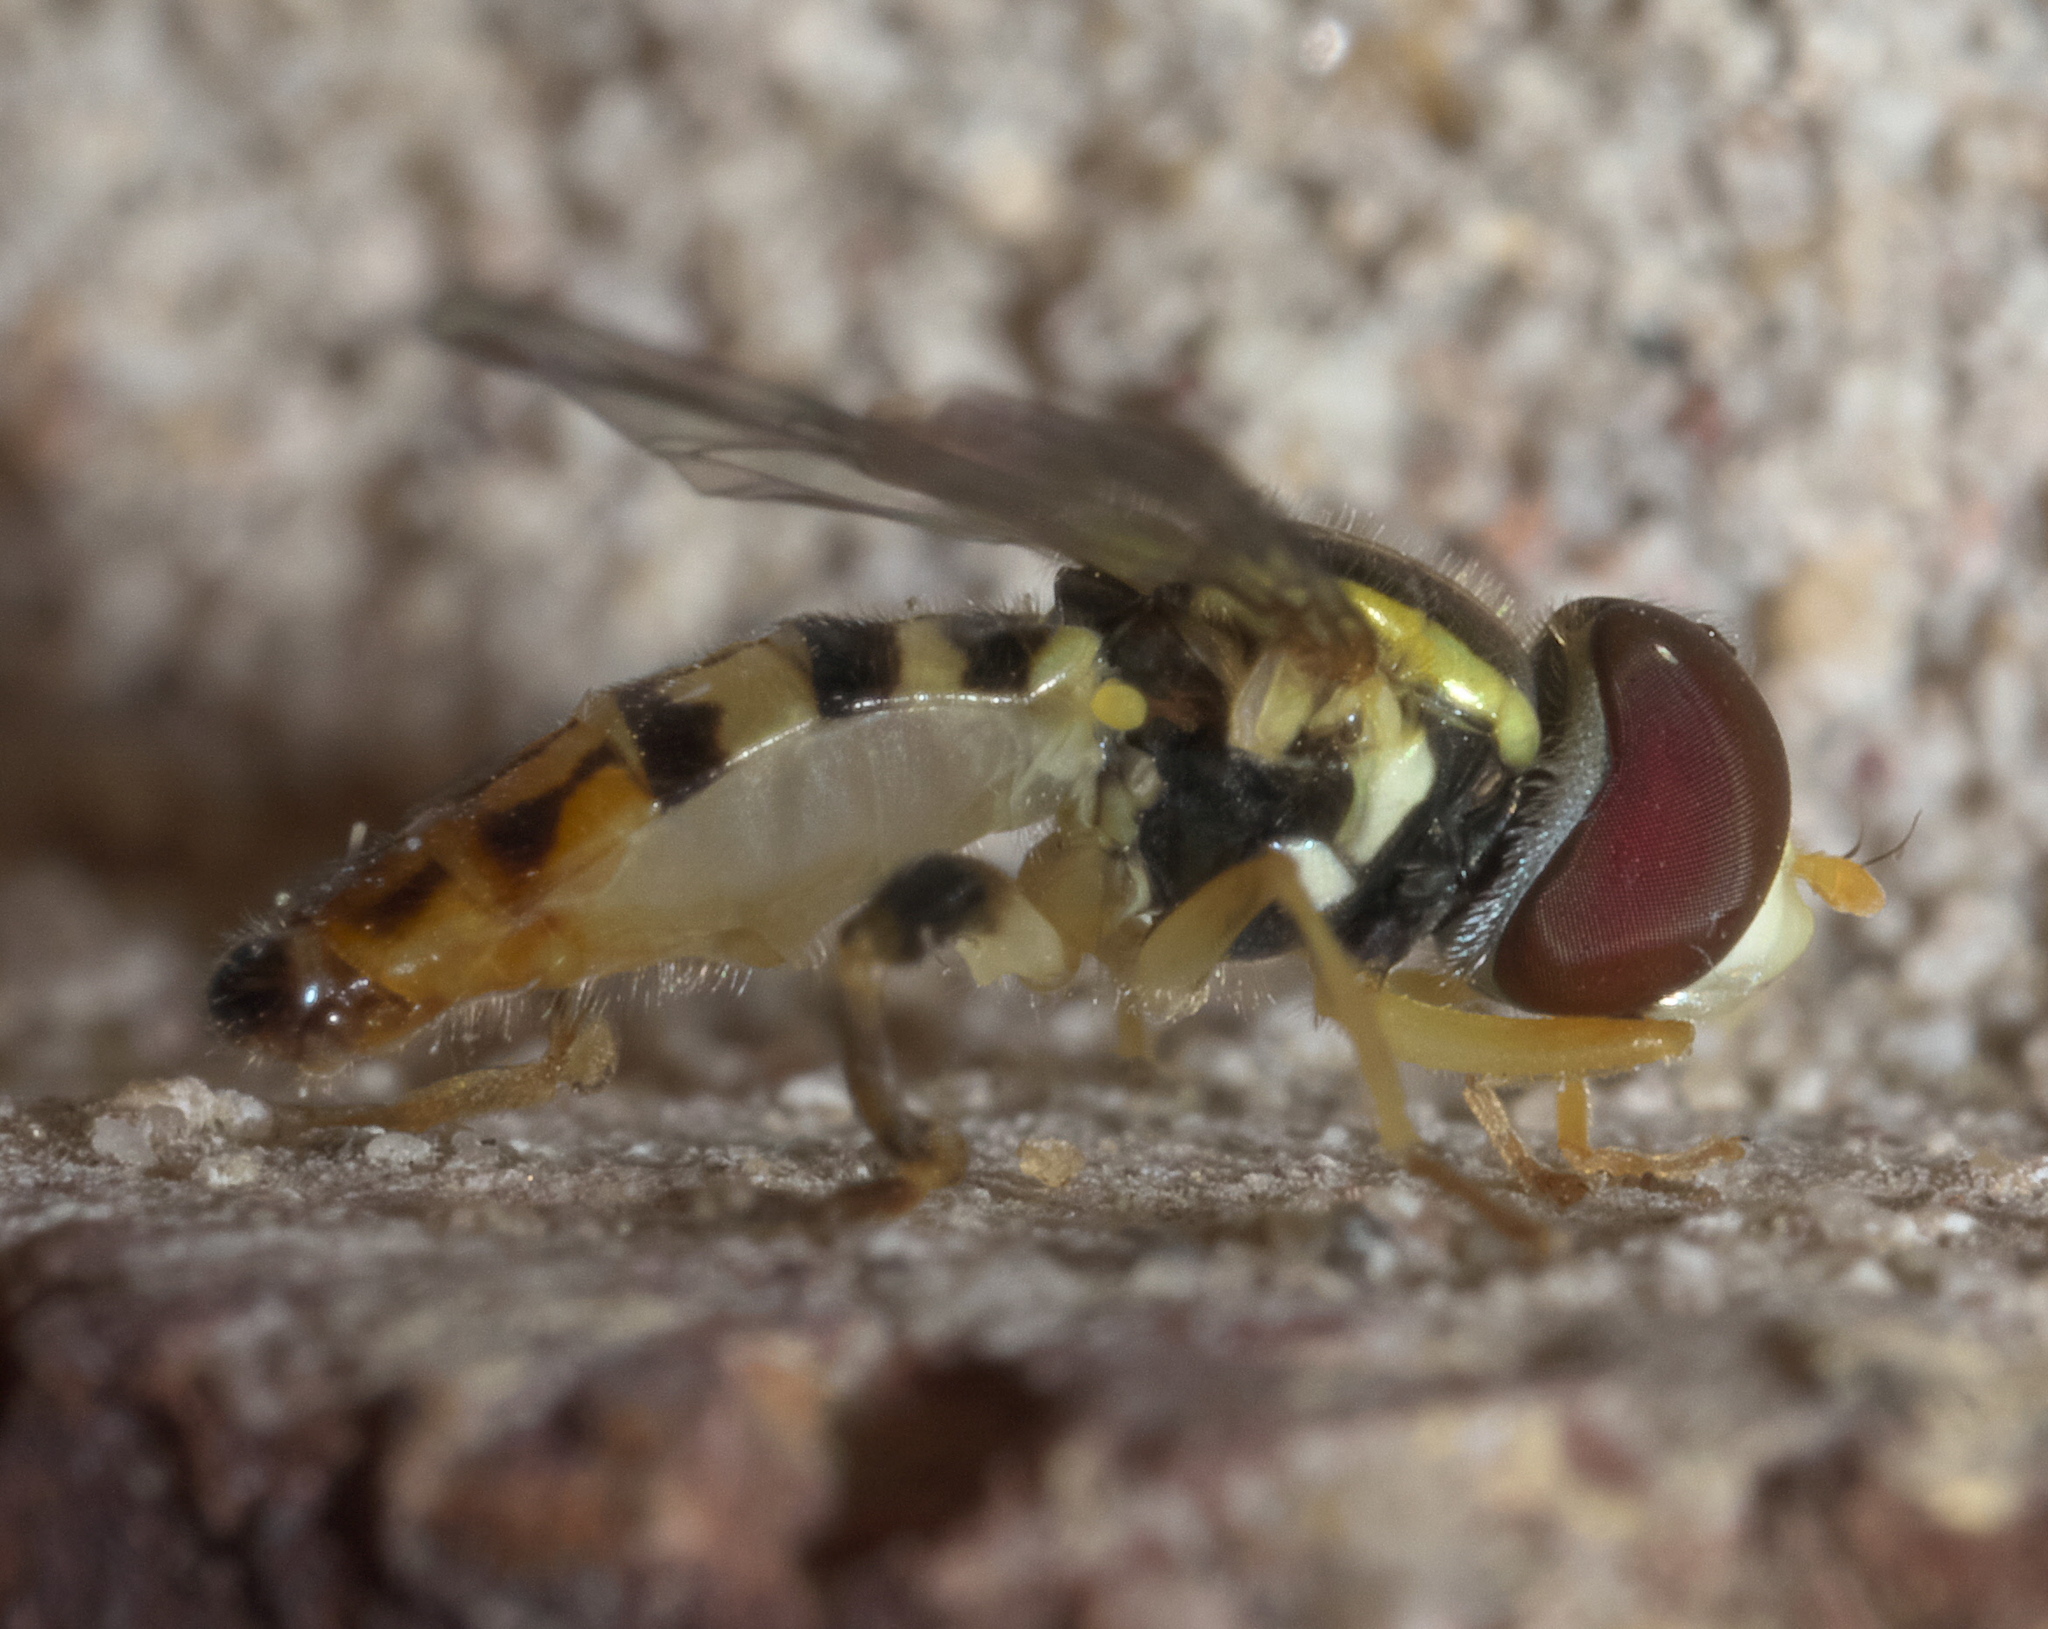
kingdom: Animalia
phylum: Arthropoda
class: Insecta
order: Diptera
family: Syrphidae
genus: Toxomerus
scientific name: Toxomerus geminatus
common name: Eastern calligrapher
